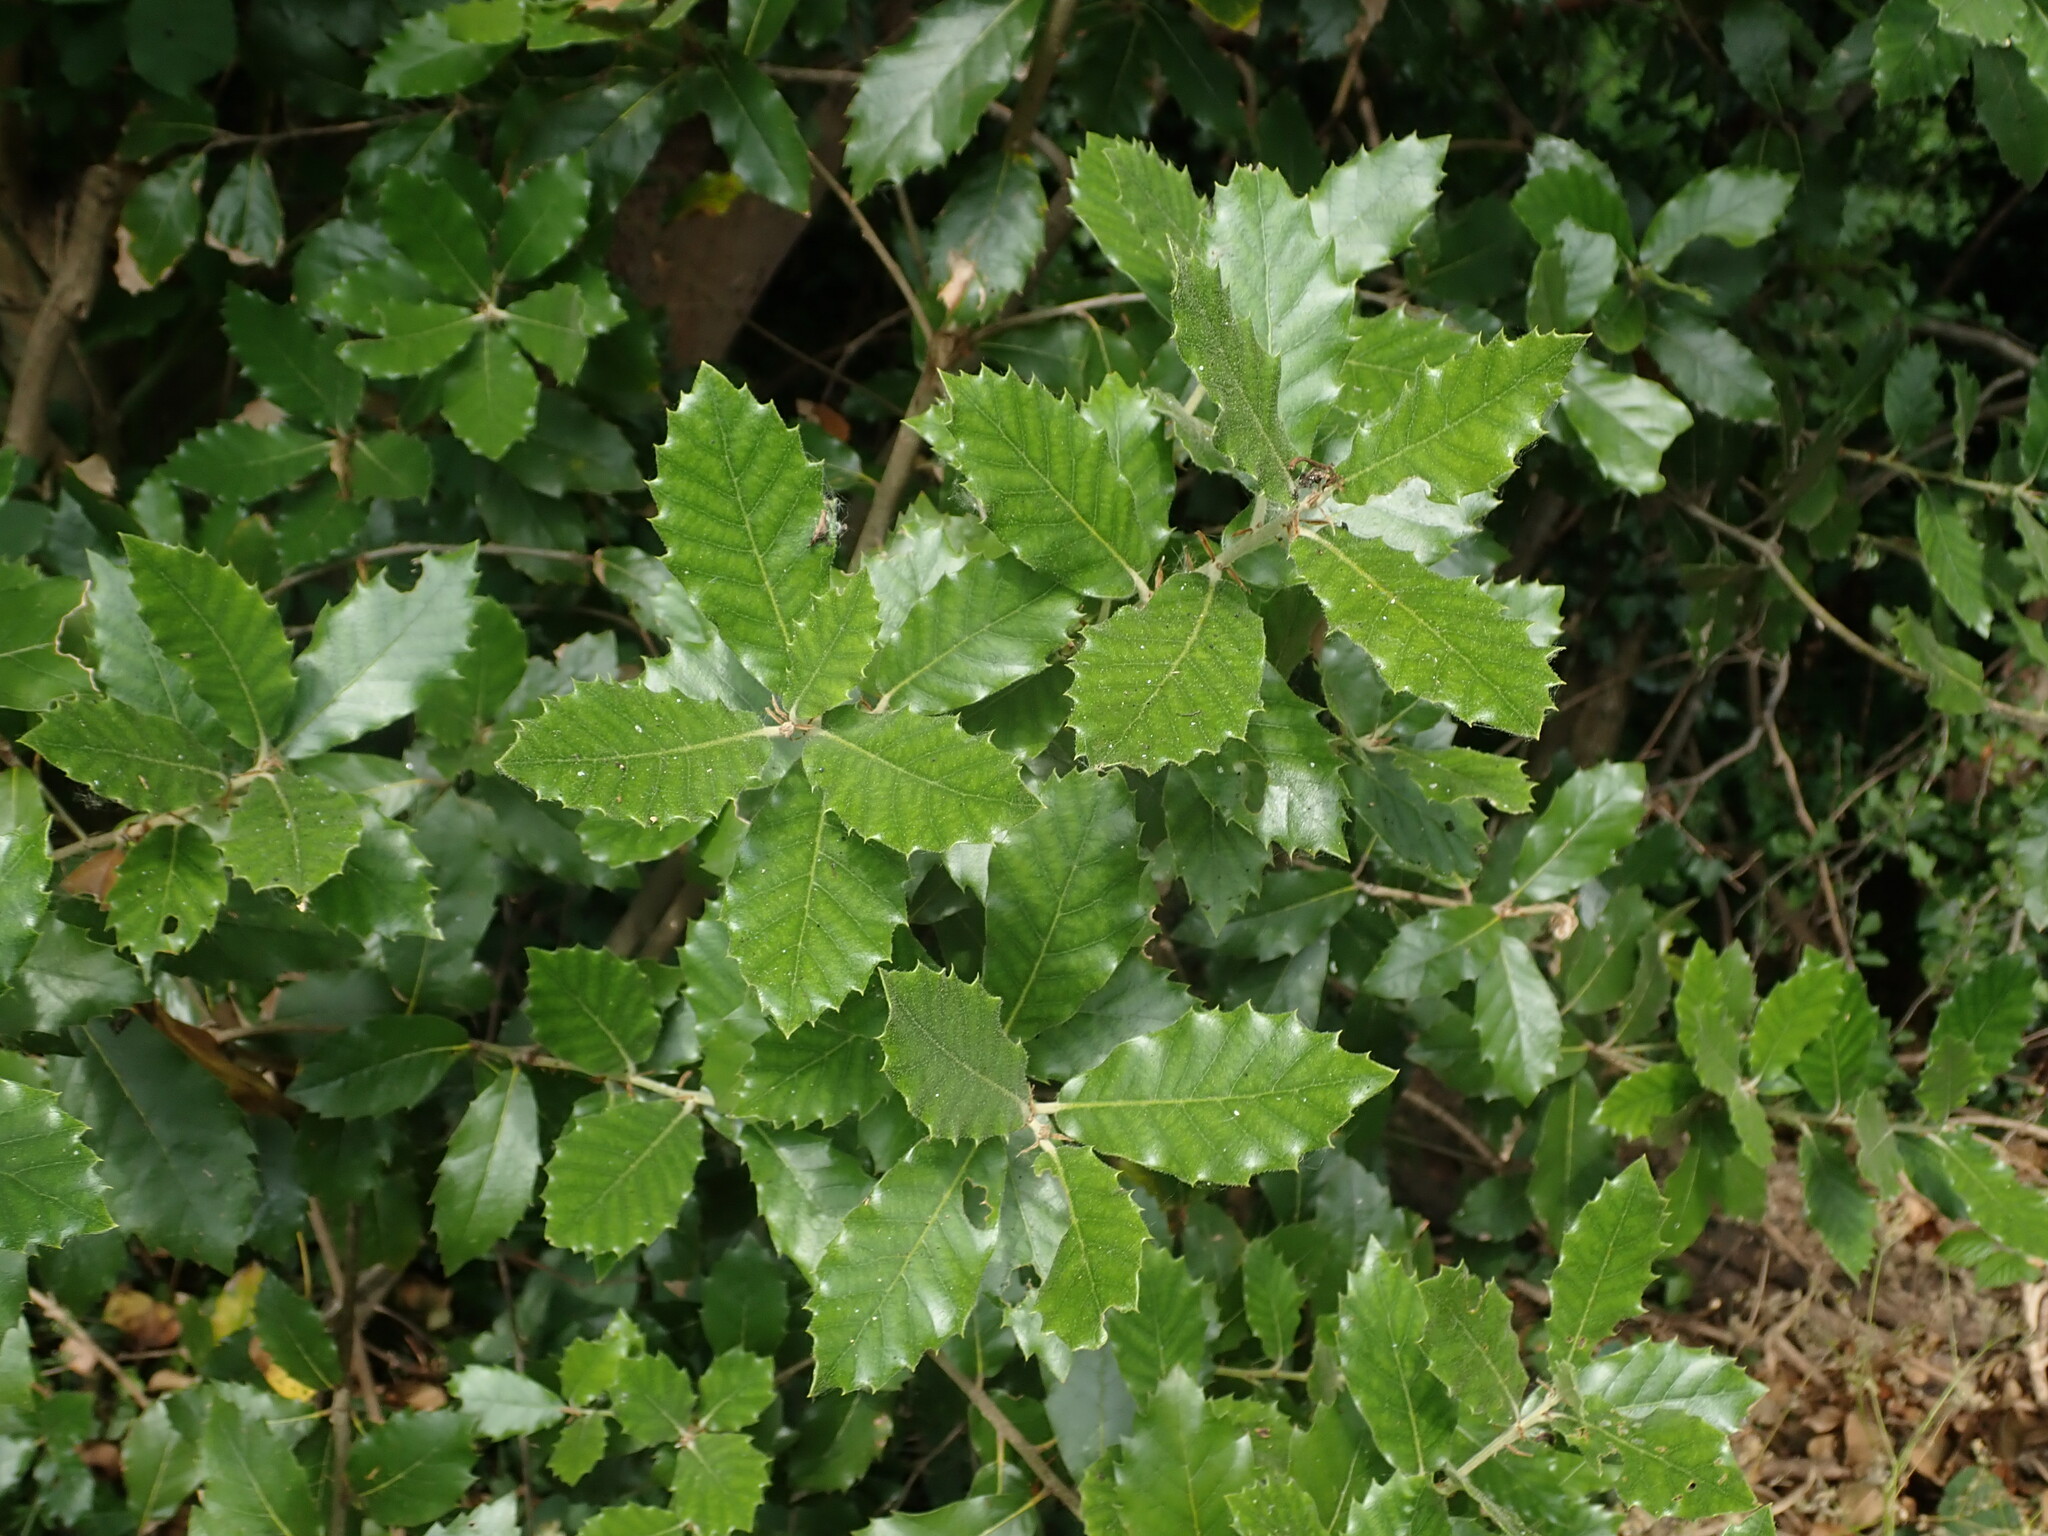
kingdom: Plantae
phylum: Tracheophyta
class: Magnoliopsida
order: Fagales
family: Fagaceae
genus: Quercus
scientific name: Quercus ilex
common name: Evergreen oak
